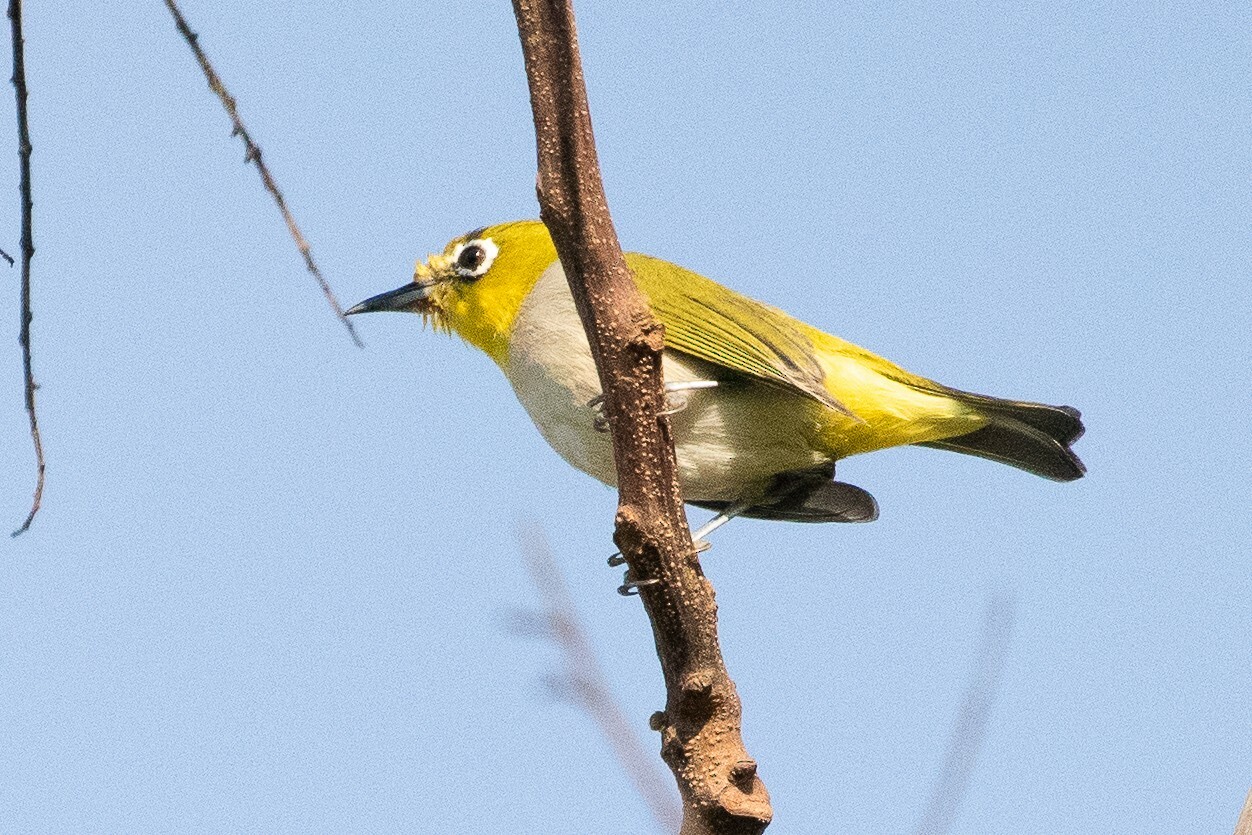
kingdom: Animalia
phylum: Chordata
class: Aves
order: Passeriformes
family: Zosteropidae
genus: Zosterops
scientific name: Zosterops simplex
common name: Swinhoe's white-eye
